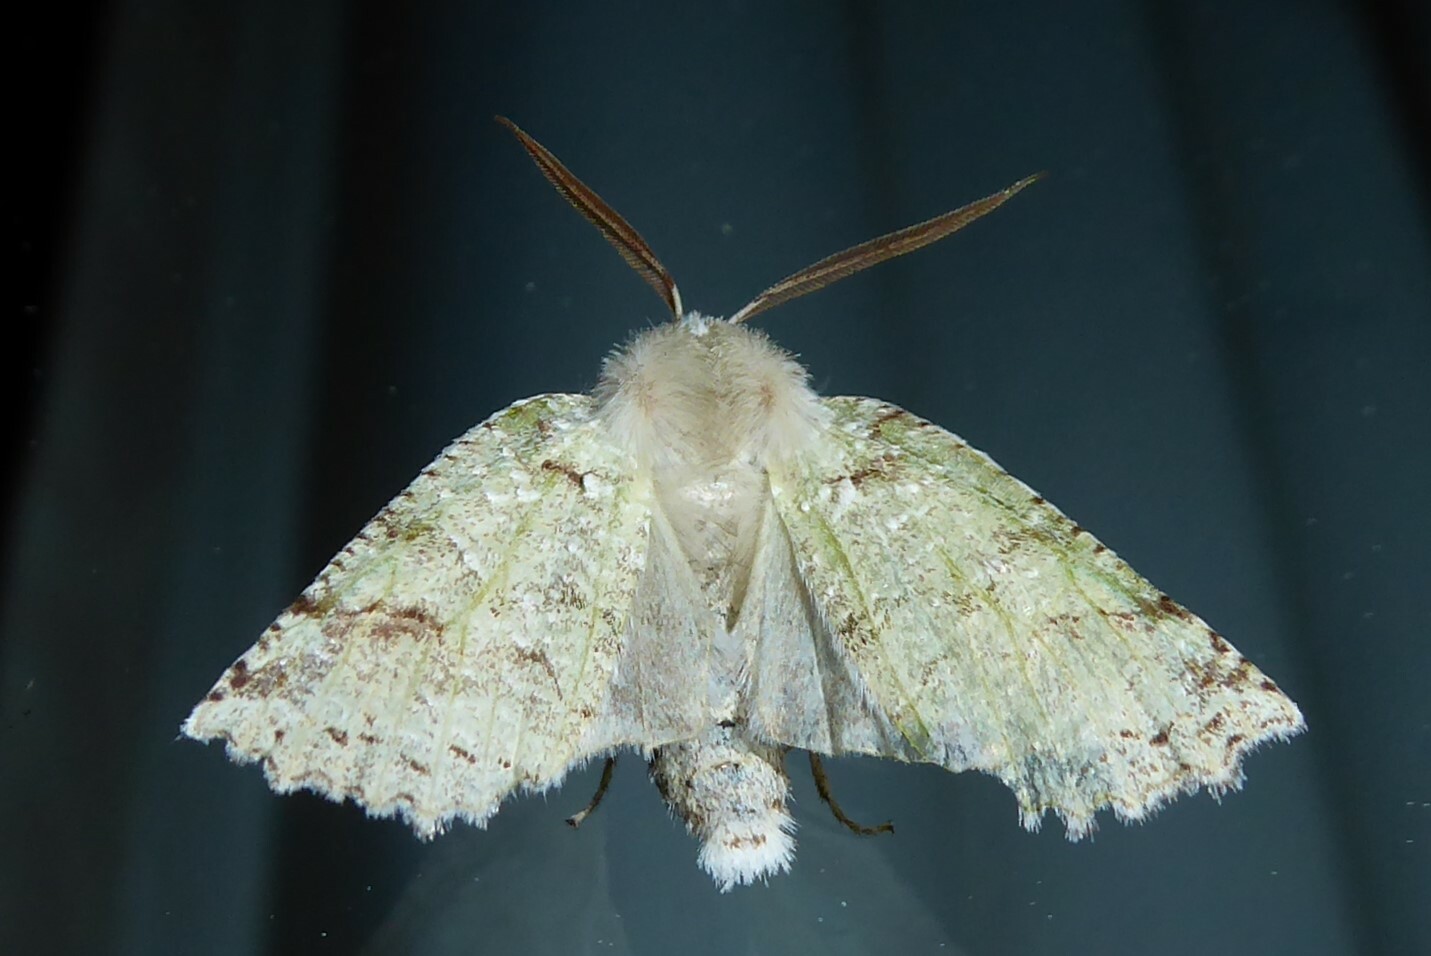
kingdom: Animalia
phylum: Arthropoda
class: Insecta
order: Lepidoptera
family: Geometridae
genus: Declana
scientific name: Declana floccosa
